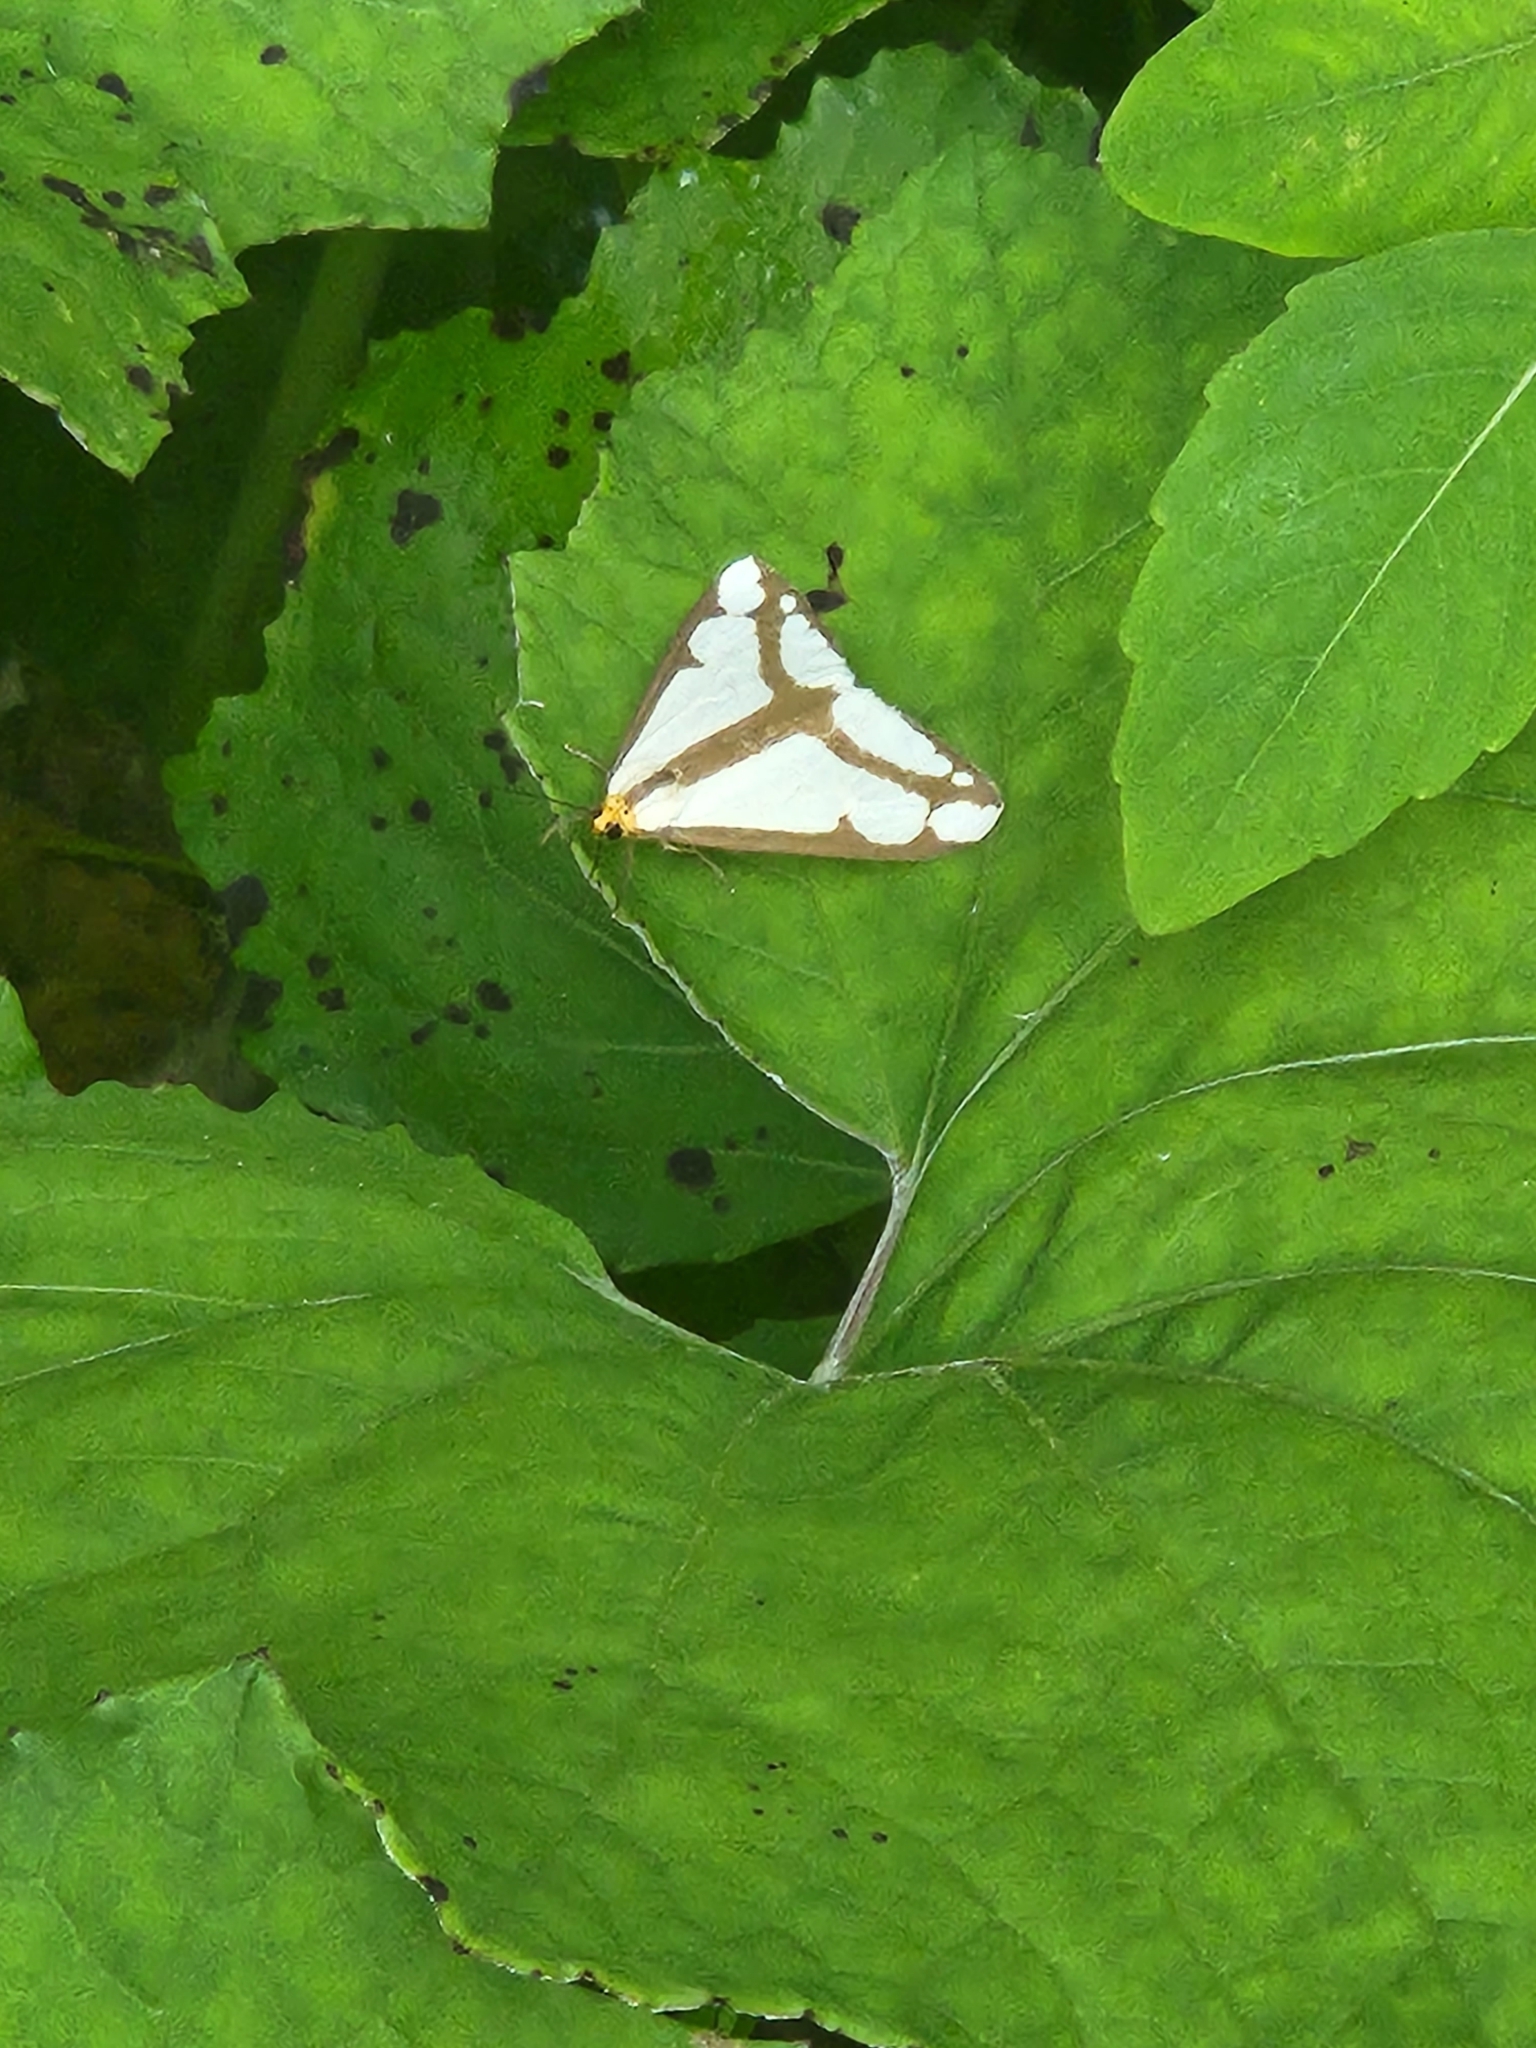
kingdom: Animalia
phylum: Arthropoda
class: Insecta
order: Lepidoptera
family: Erebidae
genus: Haploa
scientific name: Haploa lecontei
